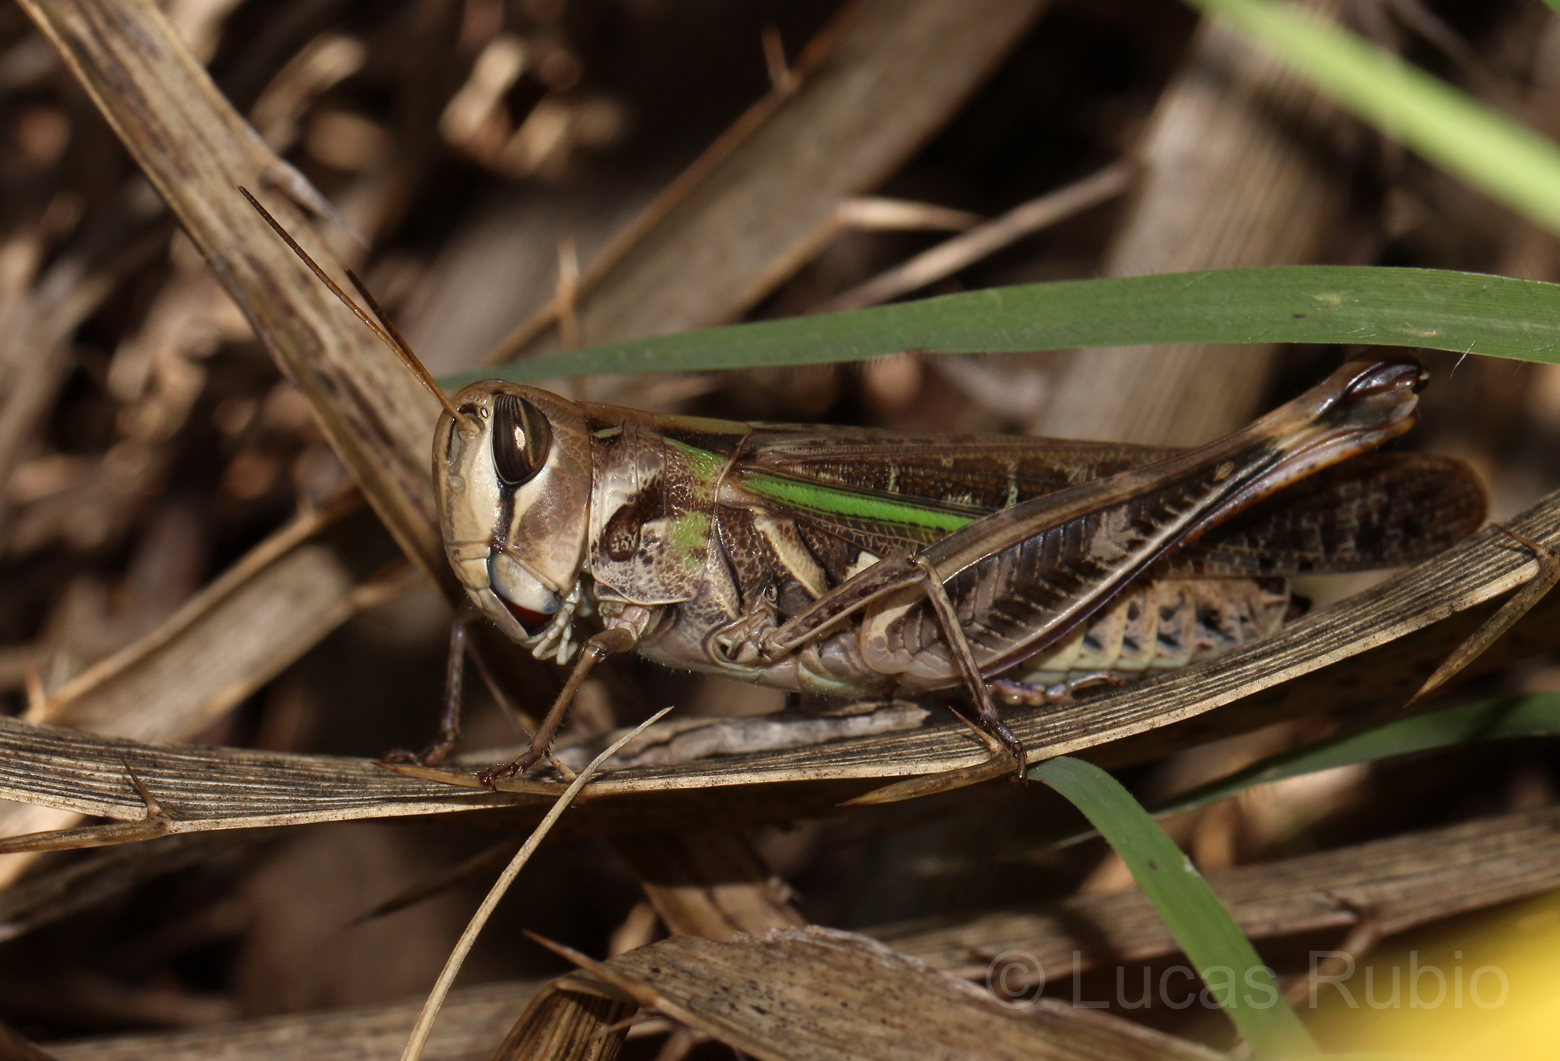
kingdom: Animalia
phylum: Arthropoda
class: Insecta
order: Orthoptera
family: Acrididae
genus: Rhammatocerus
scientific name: Rhammatocerus pictus
